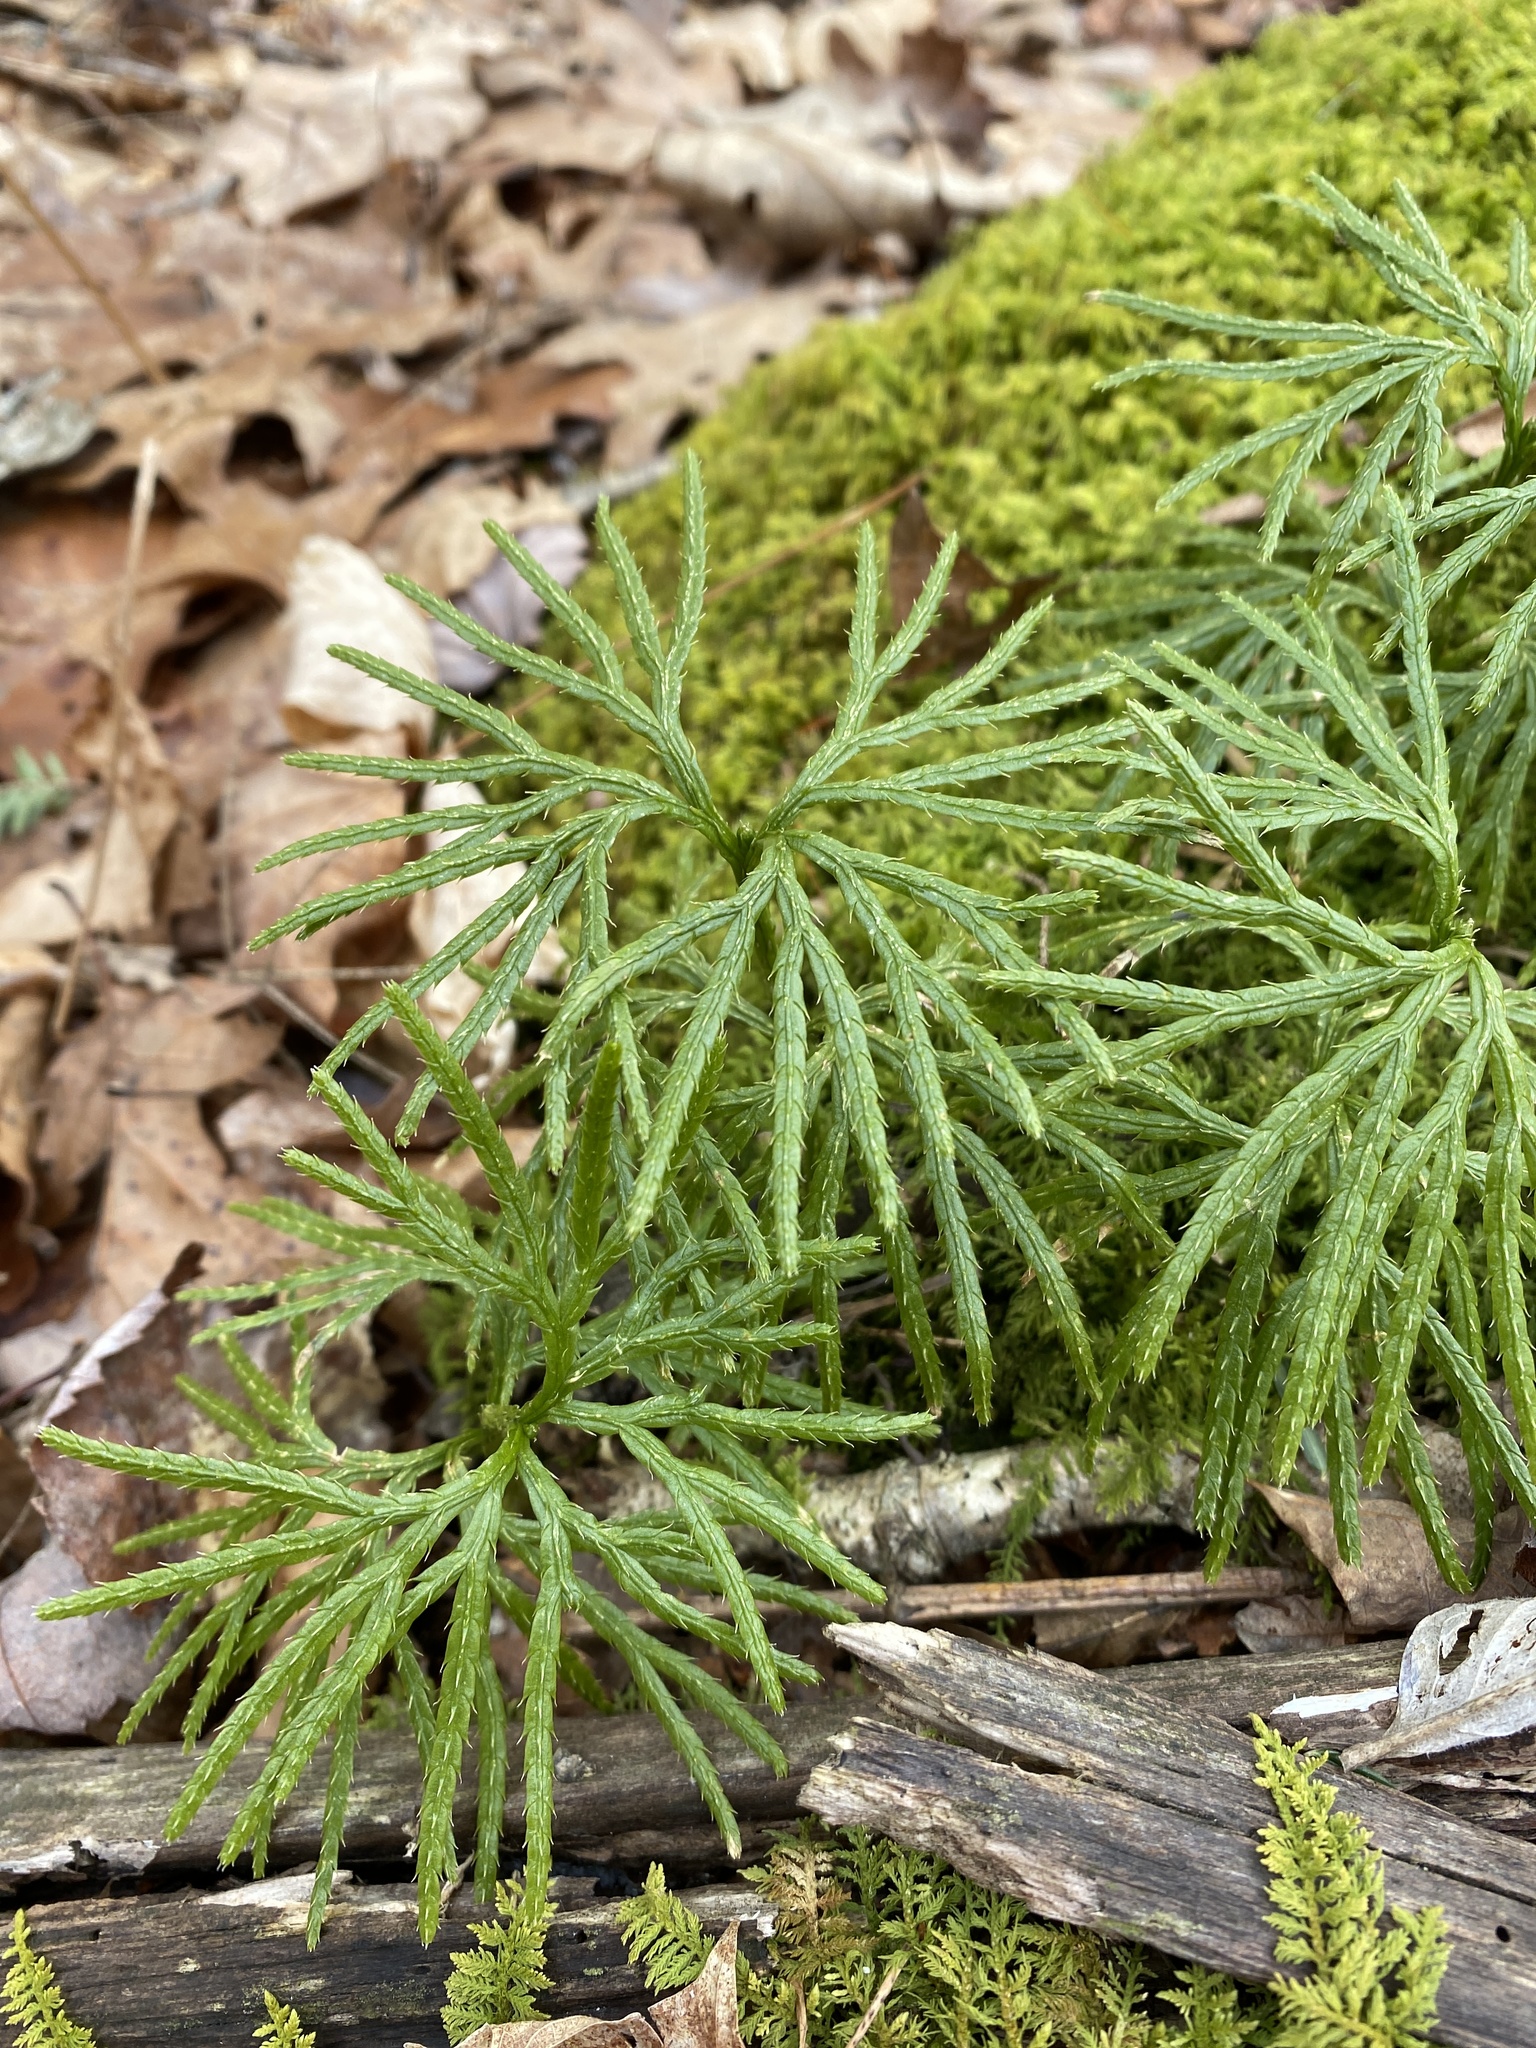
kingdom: Plantae
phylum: Tracheophyta
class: Lycopodiopsida
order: Lycopodiales
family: Lycopodiaceae
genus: Diphasiastrum
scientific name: Diphasiastrum digitatum
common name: Southern running-pine
